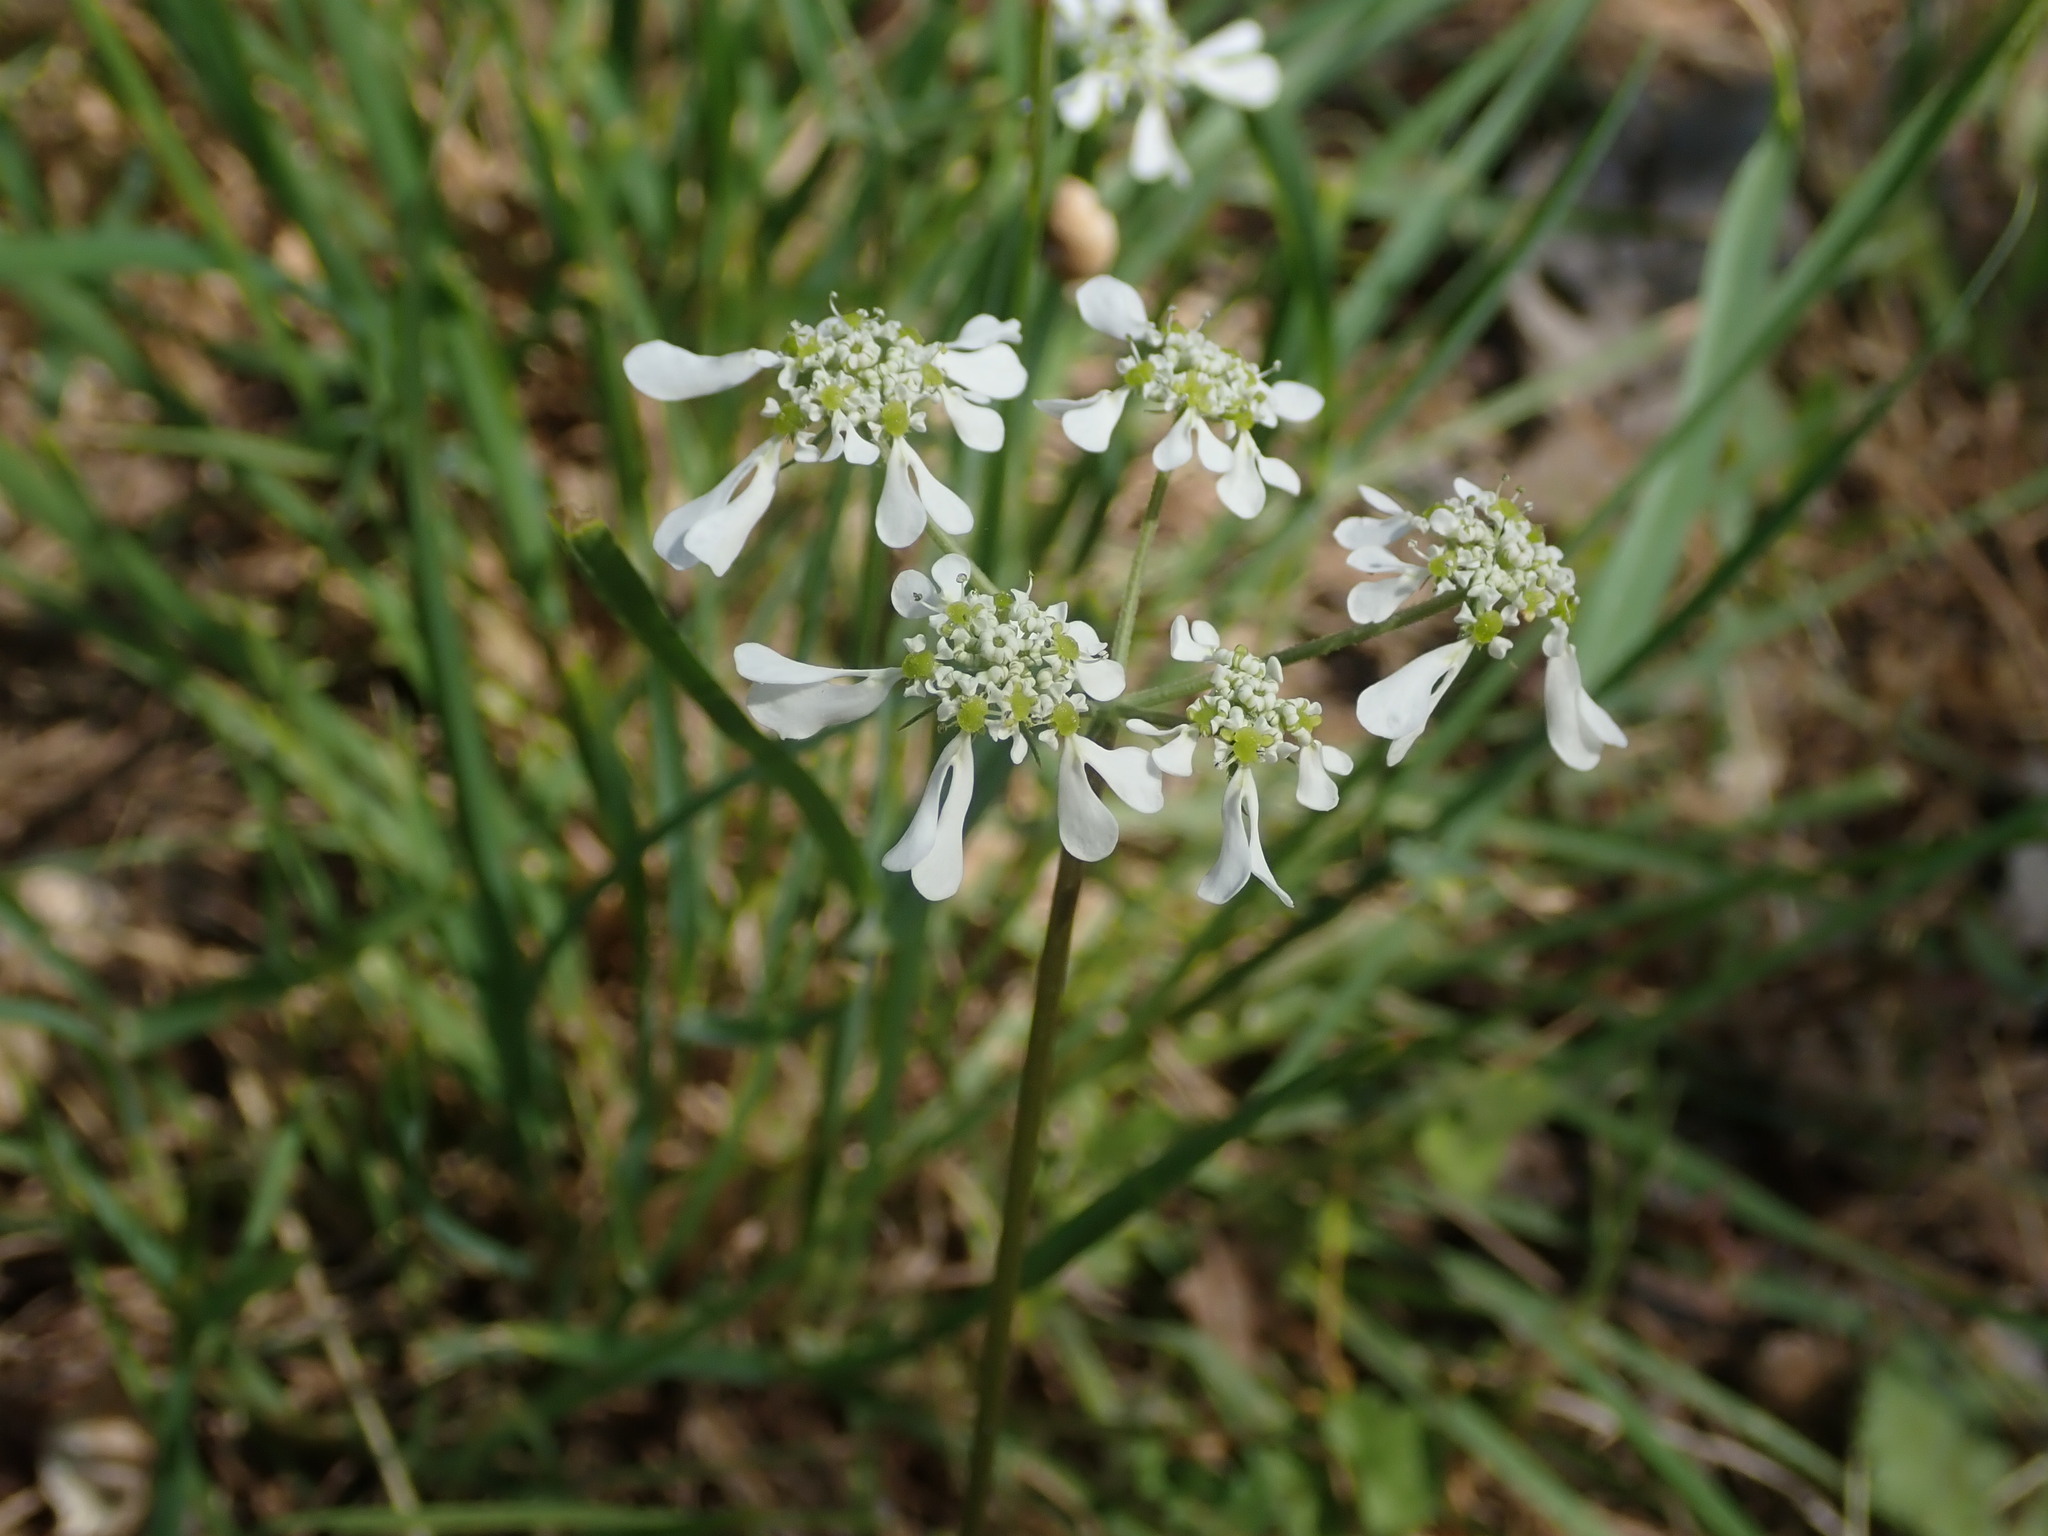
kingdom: Plantae
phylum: Tracheophyta
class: Magnoliopsida
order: Apiales
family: Apiaceae
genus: Tordylium
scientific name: Tordylium apulum
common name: Mediterranean hartwort
